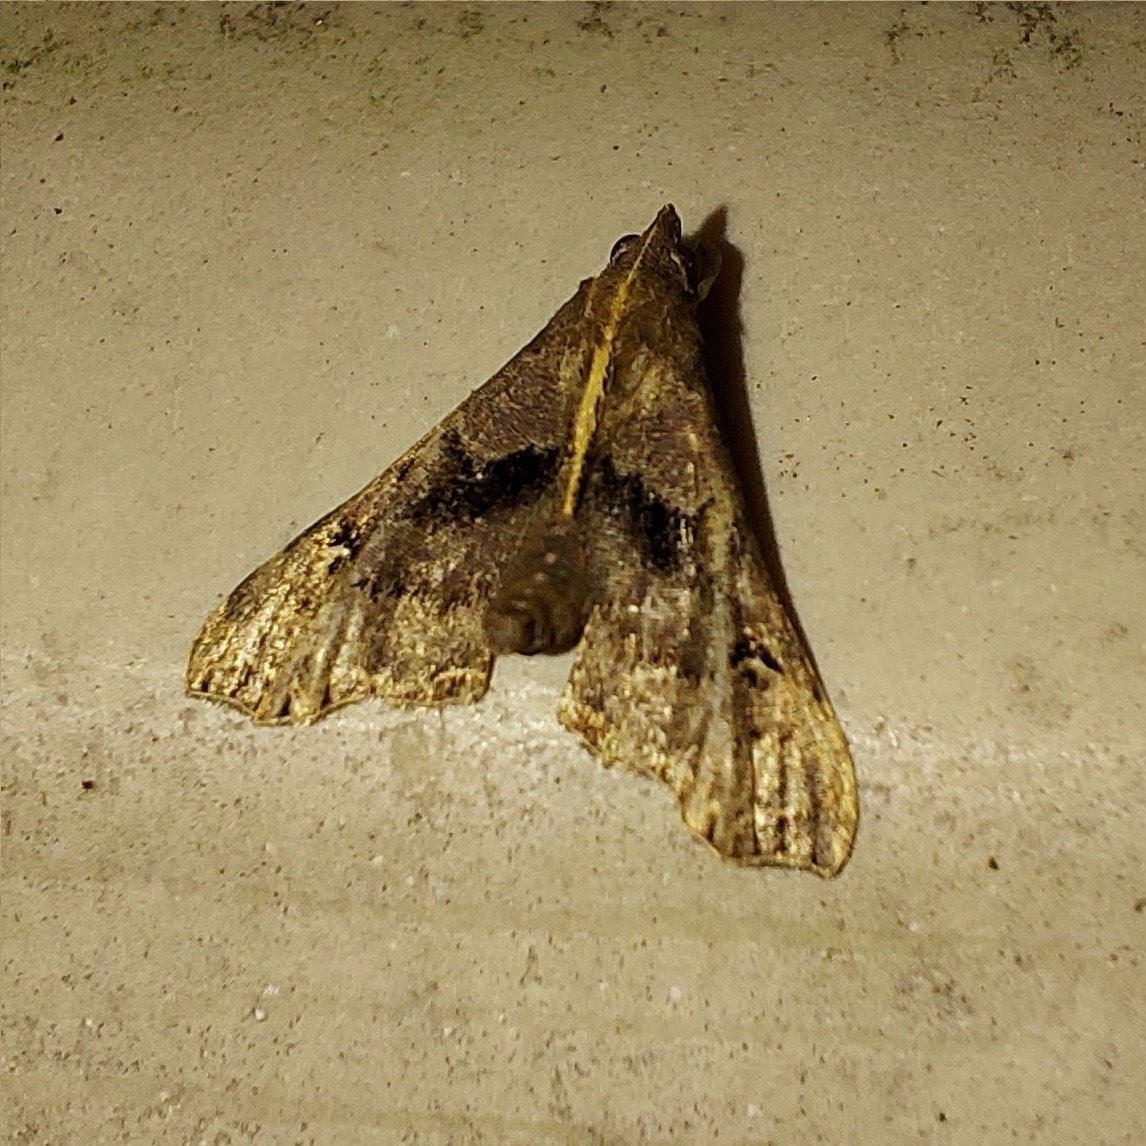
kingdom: Animalia
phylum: Arthropoda
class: Insecta
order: Lepidoptera
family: Erebidae
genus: Palthis
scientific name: Palthis asopialis
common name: Faint-spotted palthis moth
